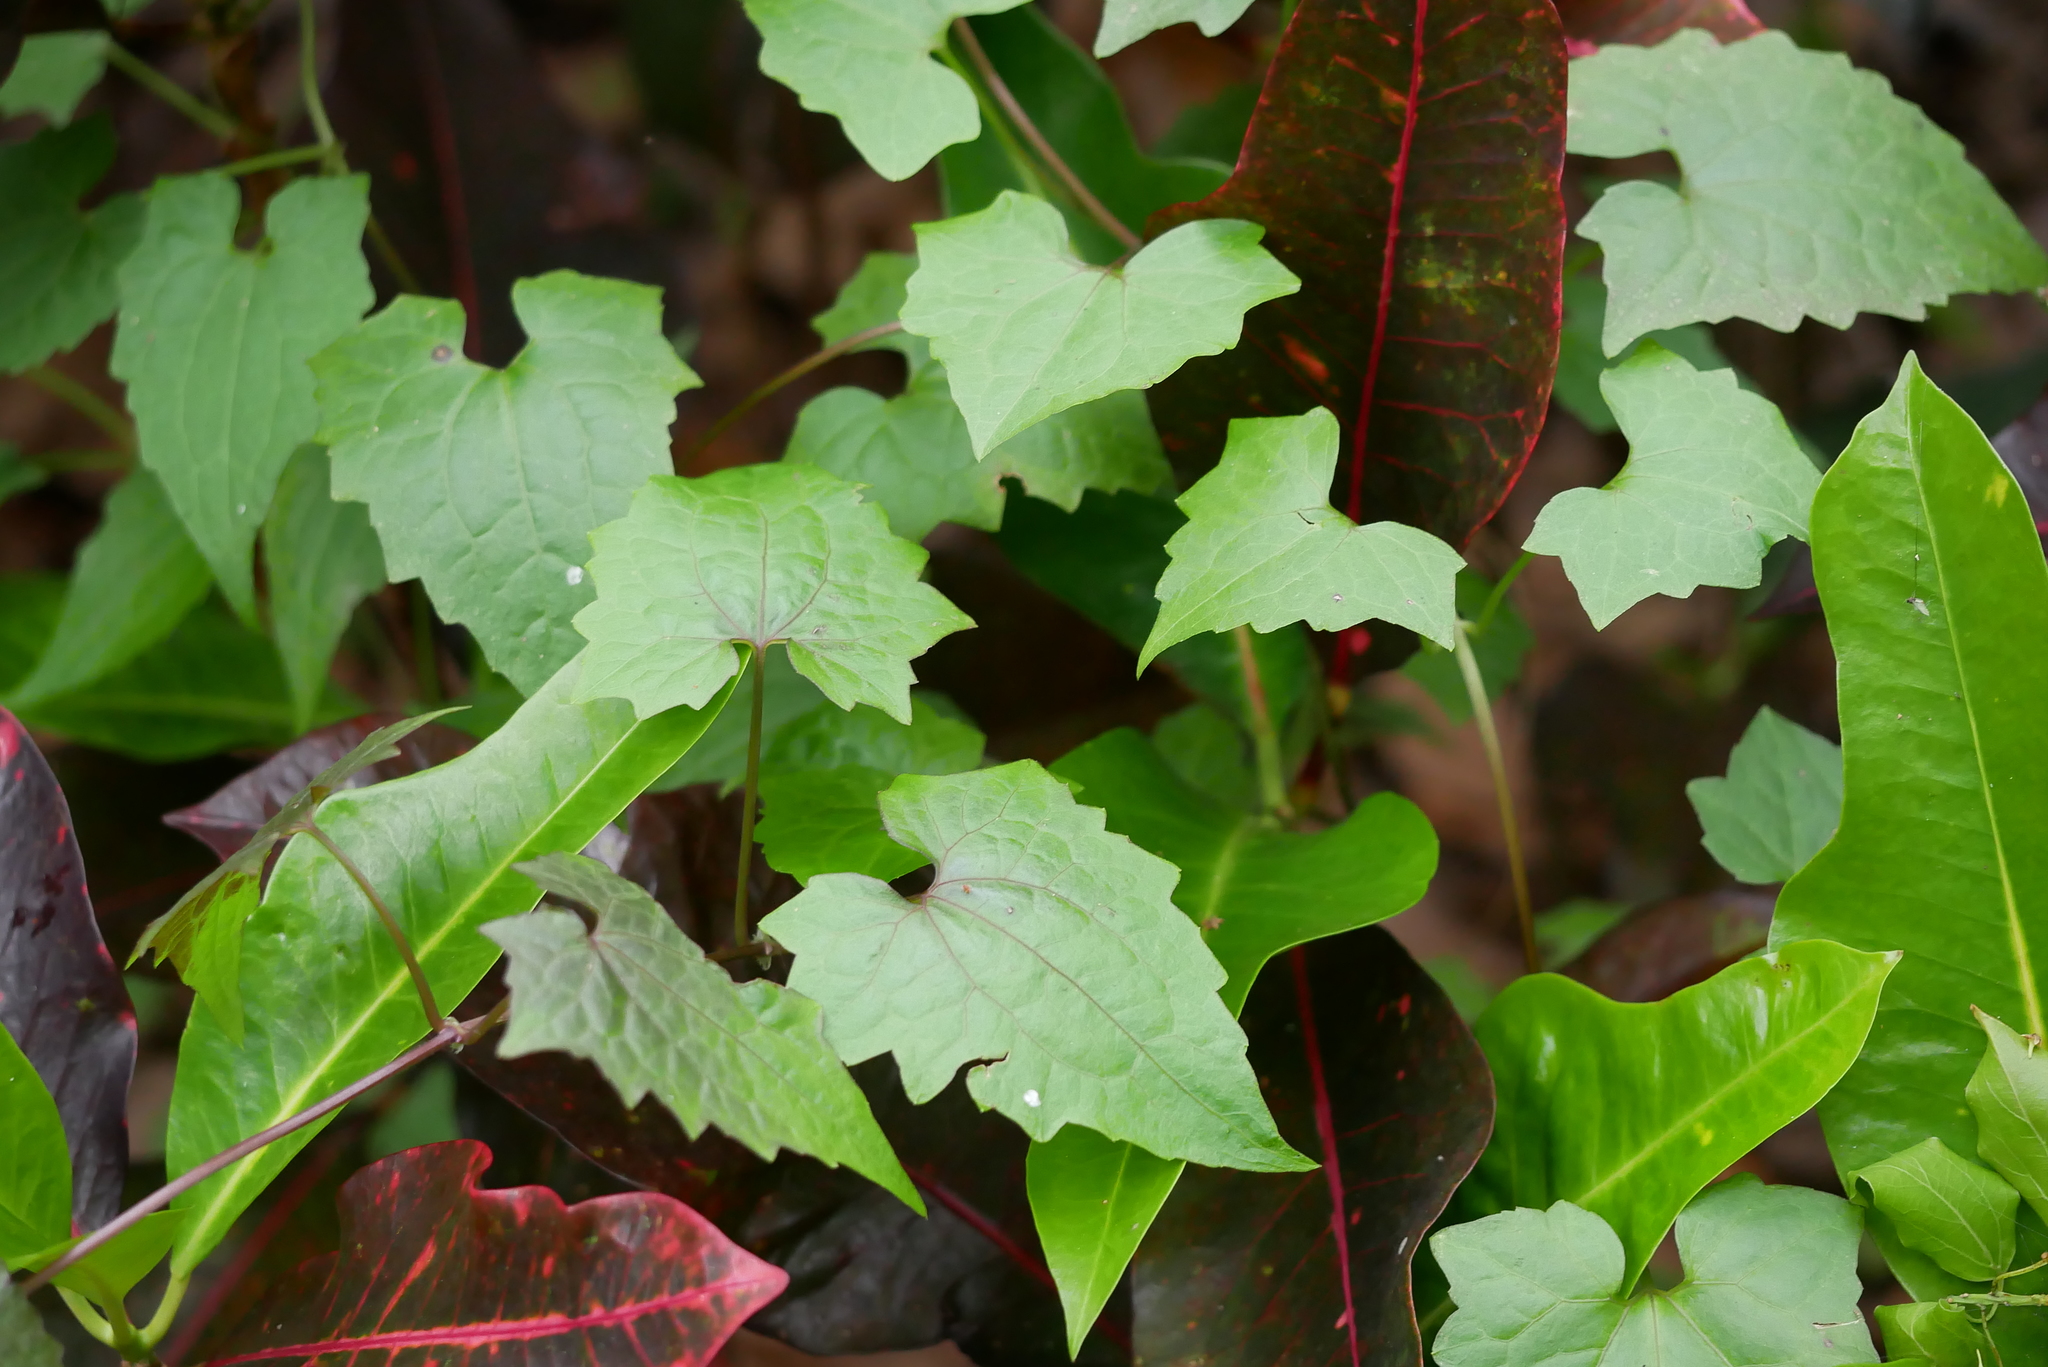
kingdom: Plantae
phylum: Tracheophyta
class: Magnoliopsida
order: Asterales
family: Asteraceae
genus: Mikania
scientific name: Mikania micrantha
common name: Mile-a-minute
